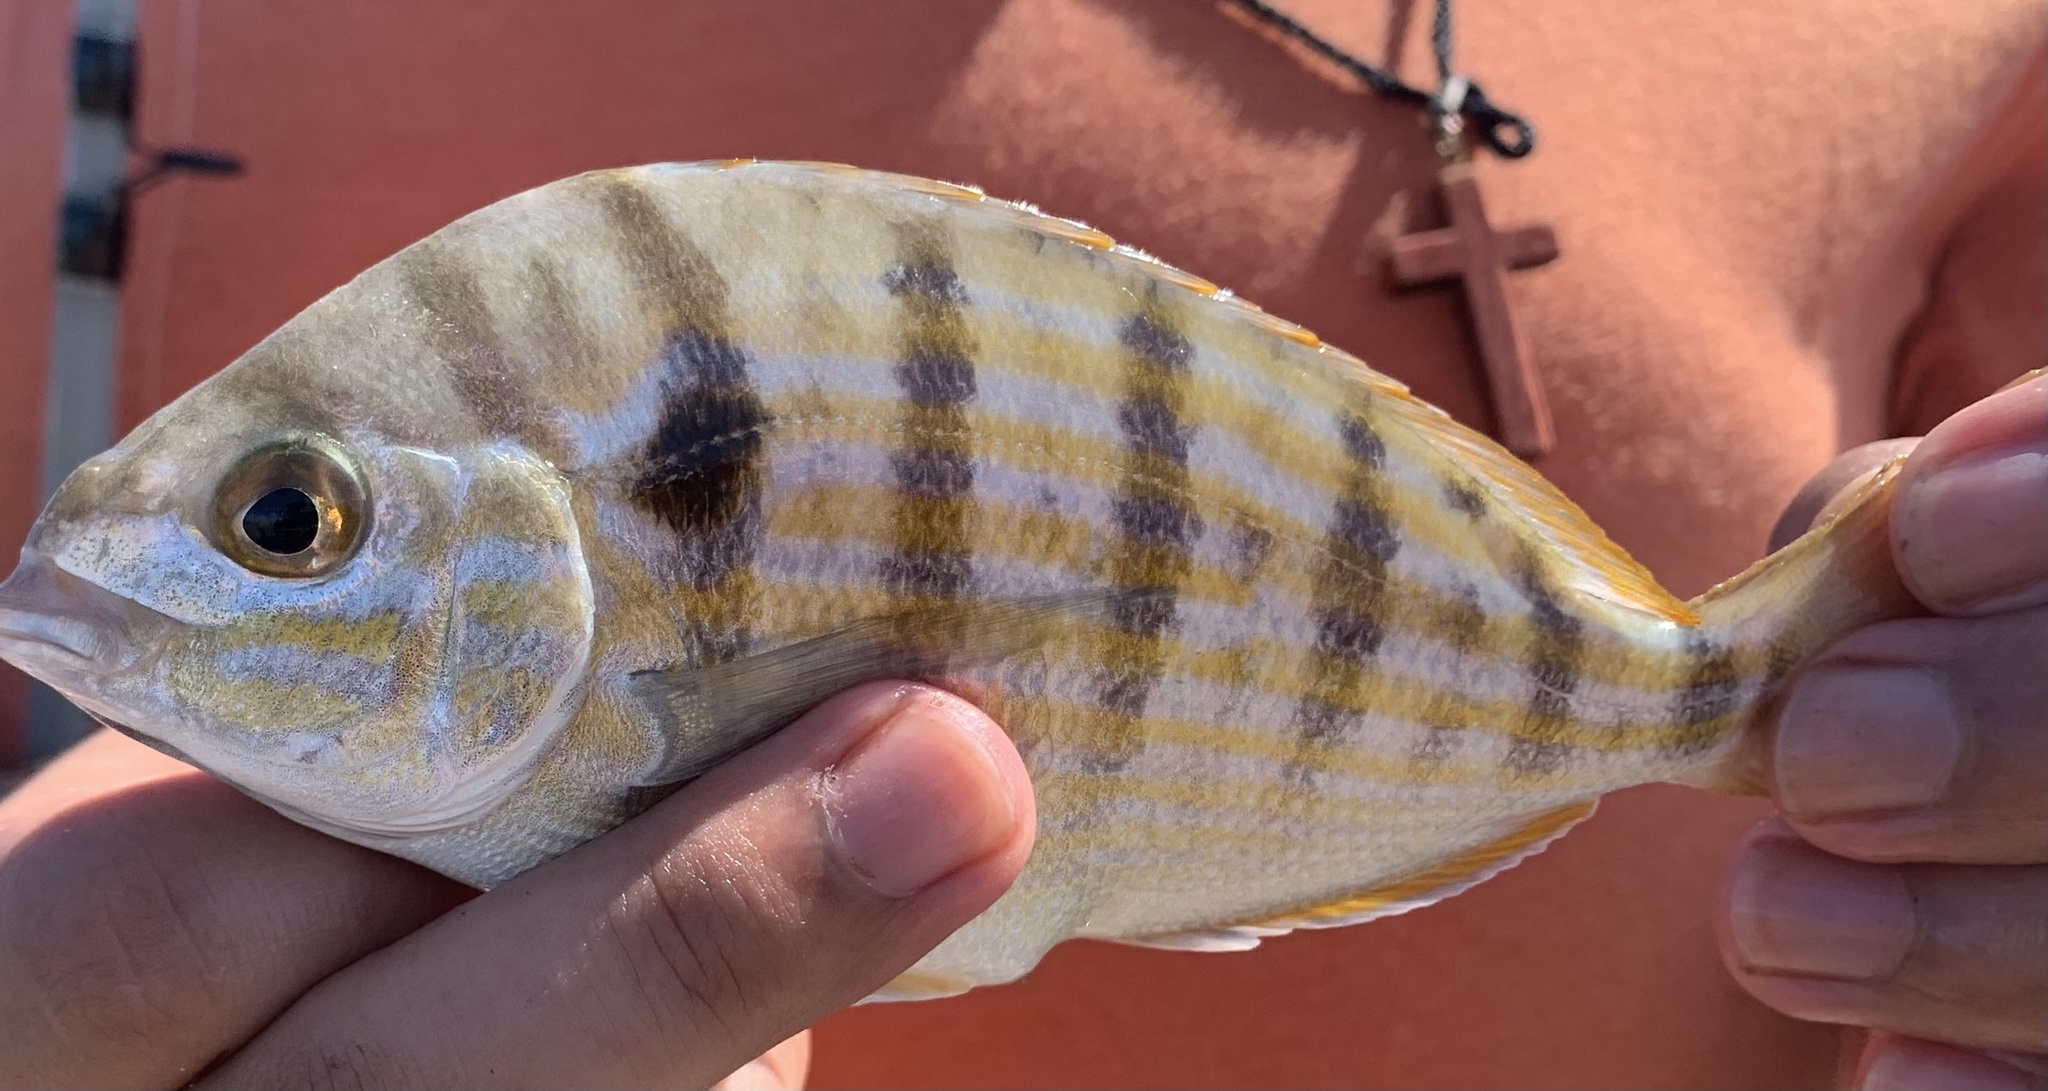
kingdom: Animalia
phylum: Chordata
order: Perciformes
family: Sparidae
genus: Lagodon
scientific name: Lagodon rhomboides
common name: Pinfish
